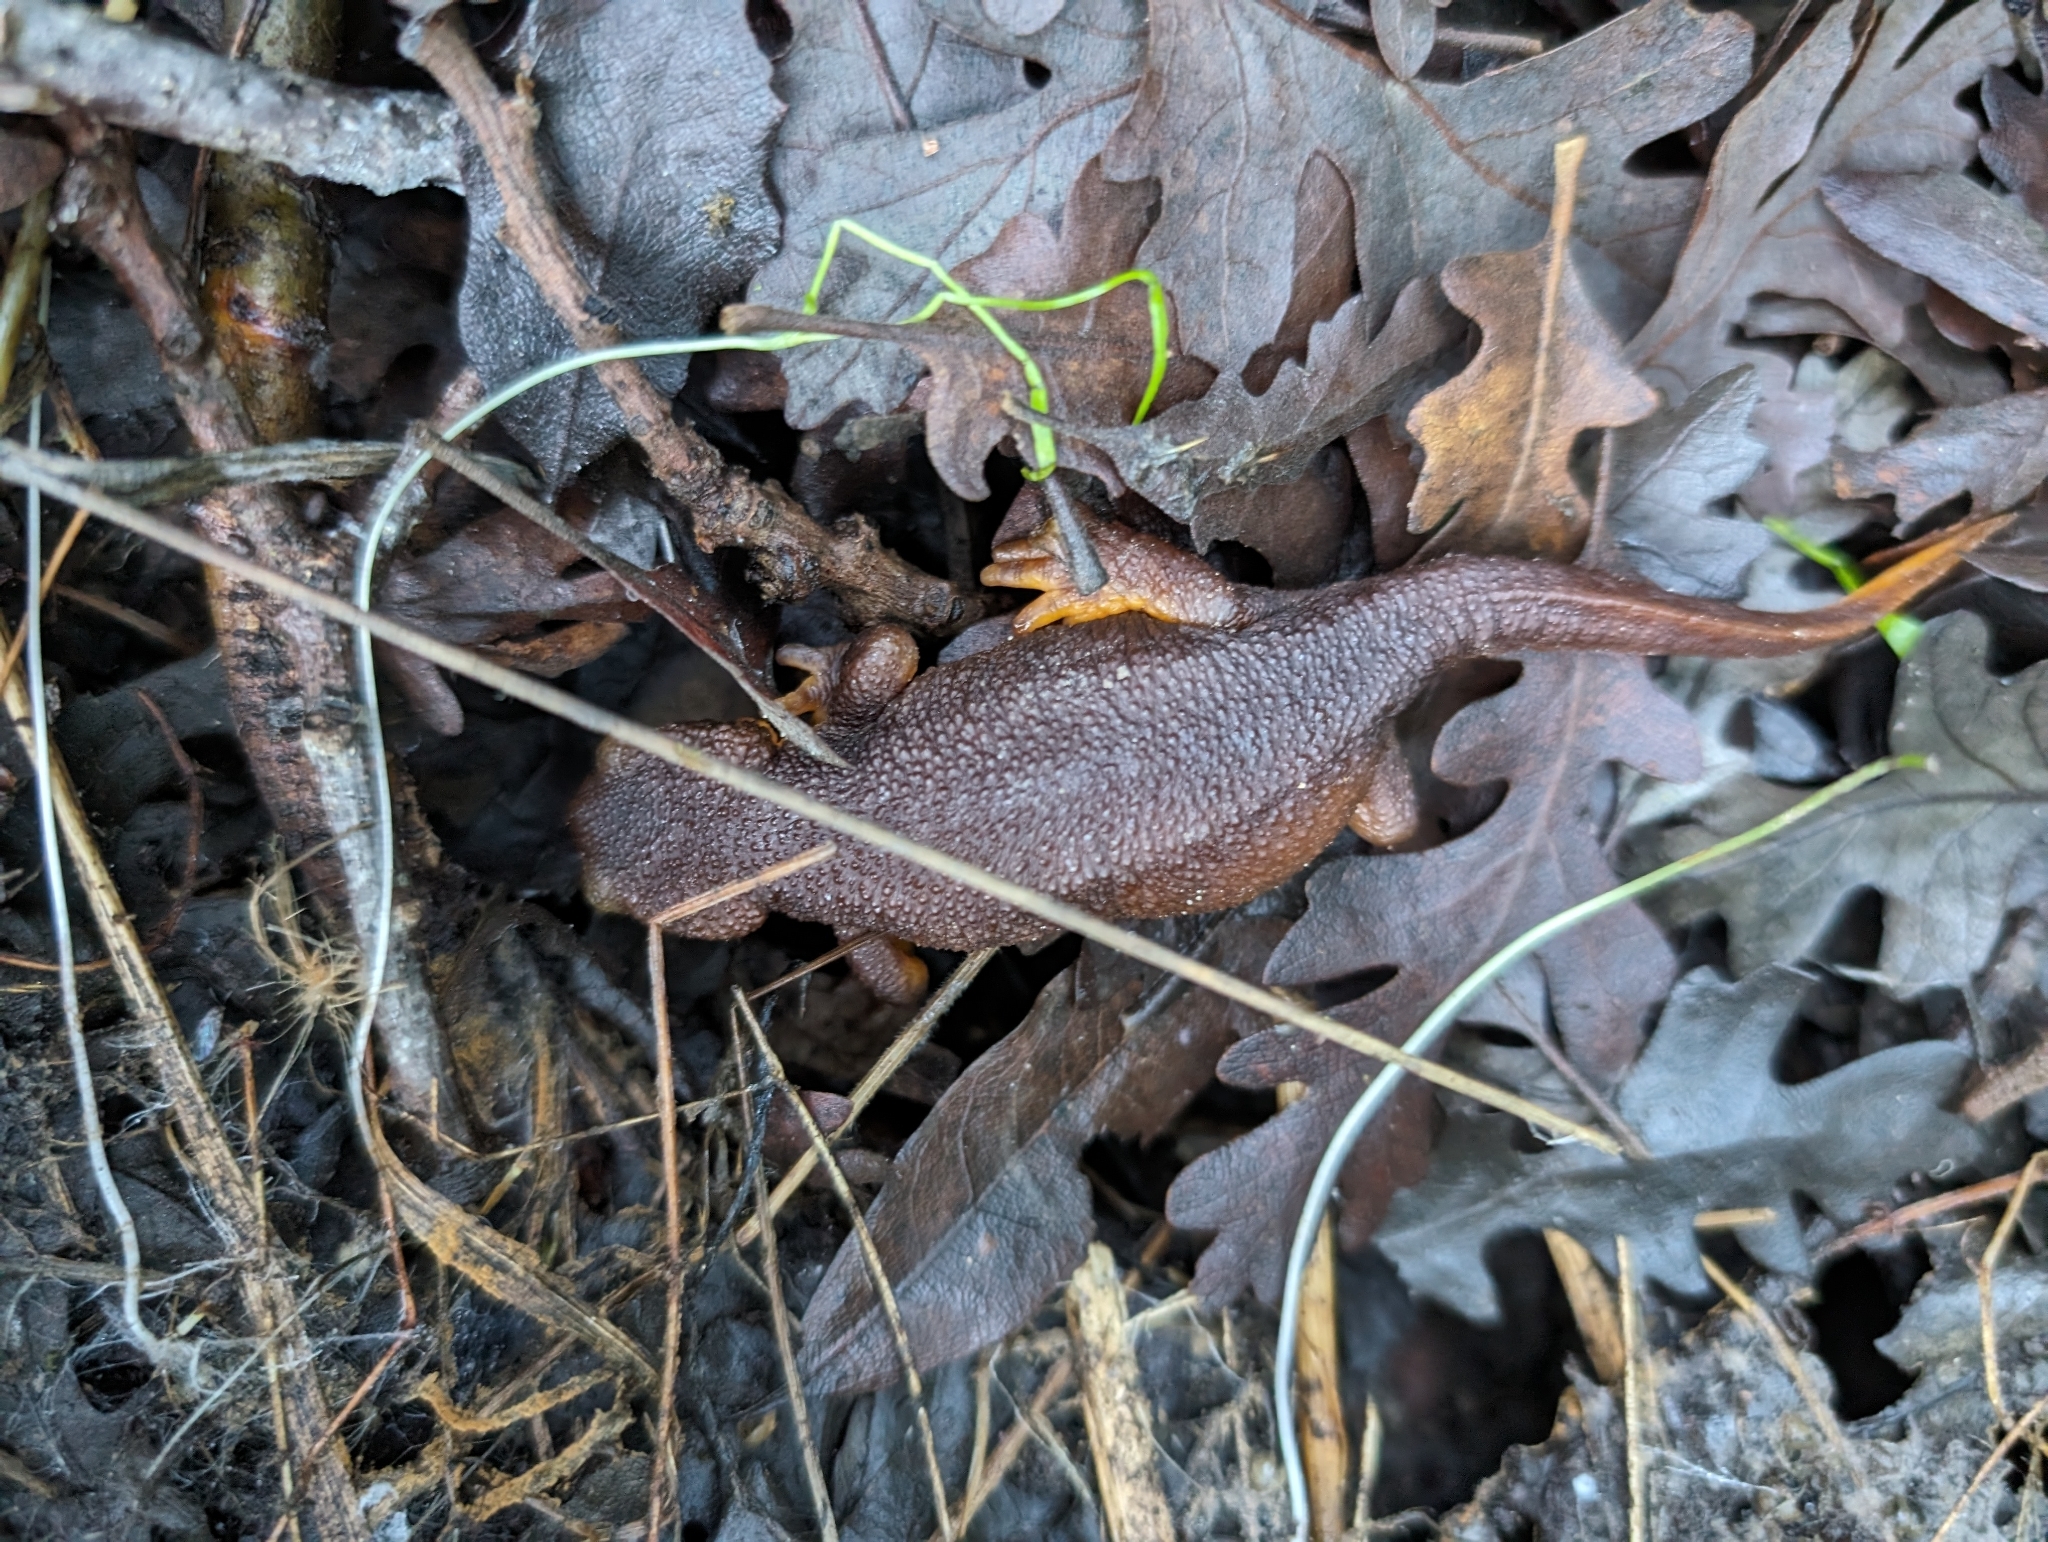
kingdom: Animalia
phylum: Chordata
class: Amphibia
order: Caudata
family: Salamandridae
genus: Taricha
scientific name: Taricha torosa
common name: California newt
